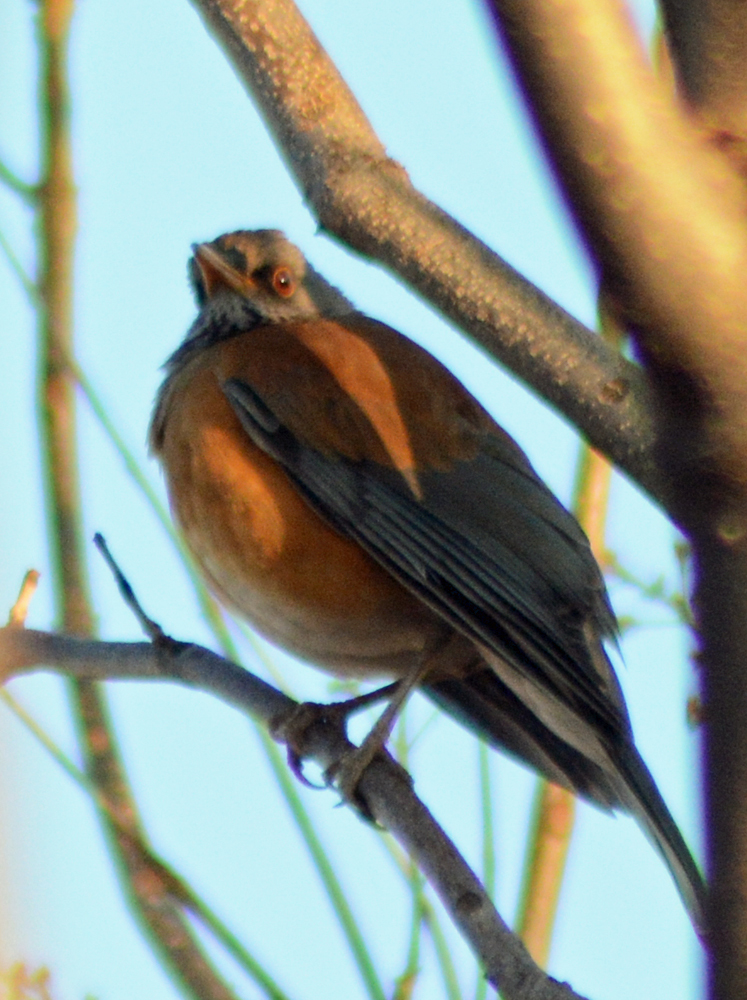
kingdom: Animalia
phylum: Chordata
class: Aves
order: Passeriformes
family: Turdidae
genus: Turdus
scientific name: Turdus rufopalliatus
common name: Rufous-backed robin
